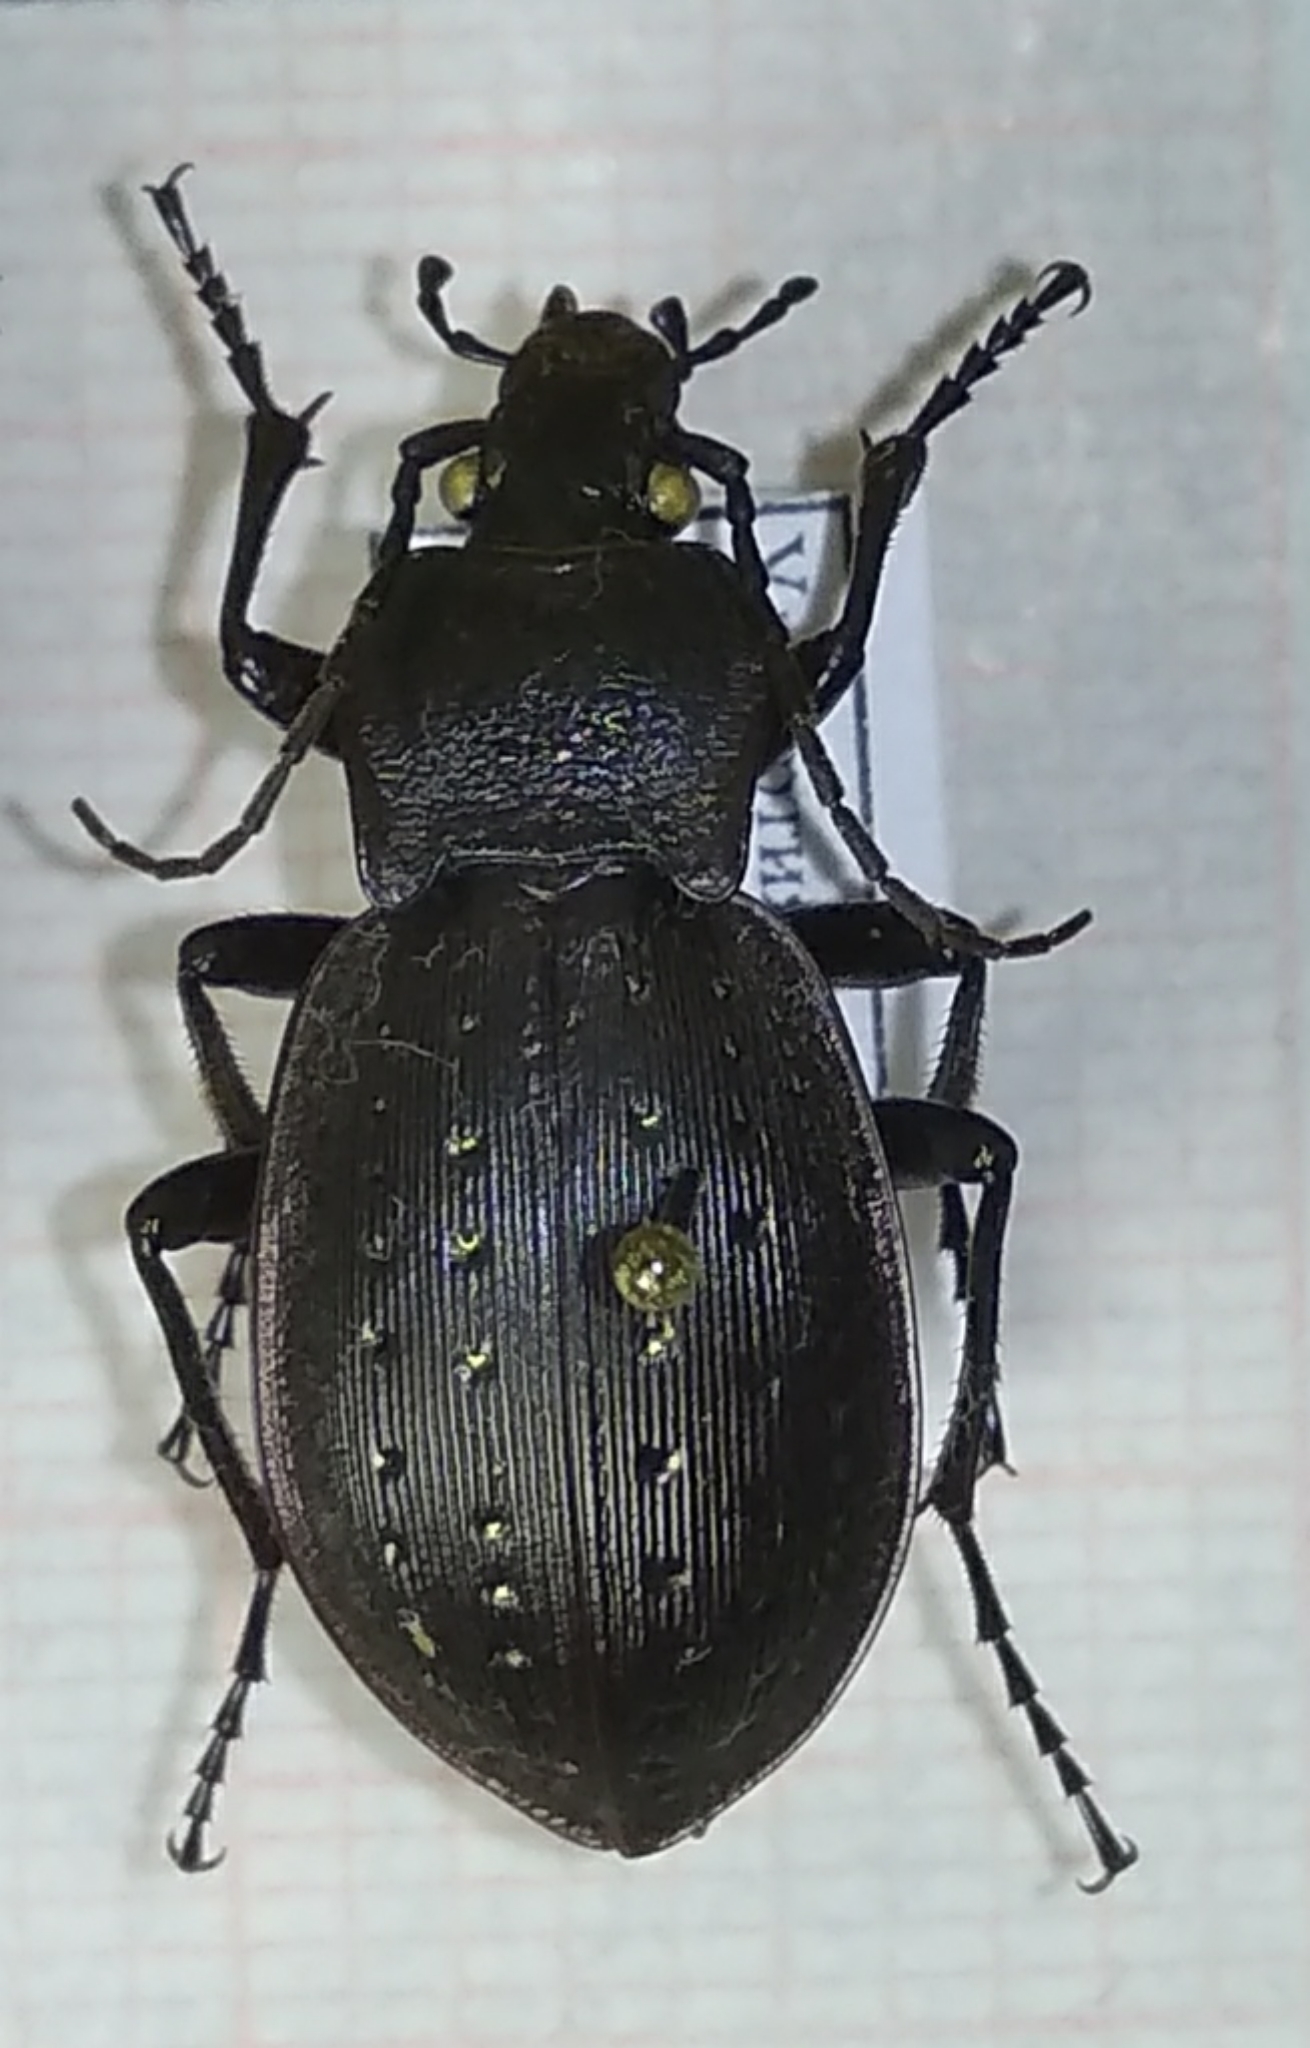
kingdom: Animalia
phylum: Arthropoda
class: Insecta
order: Coleoptera
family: Carabidae
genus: Carabus
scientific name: Carabus hortensis
